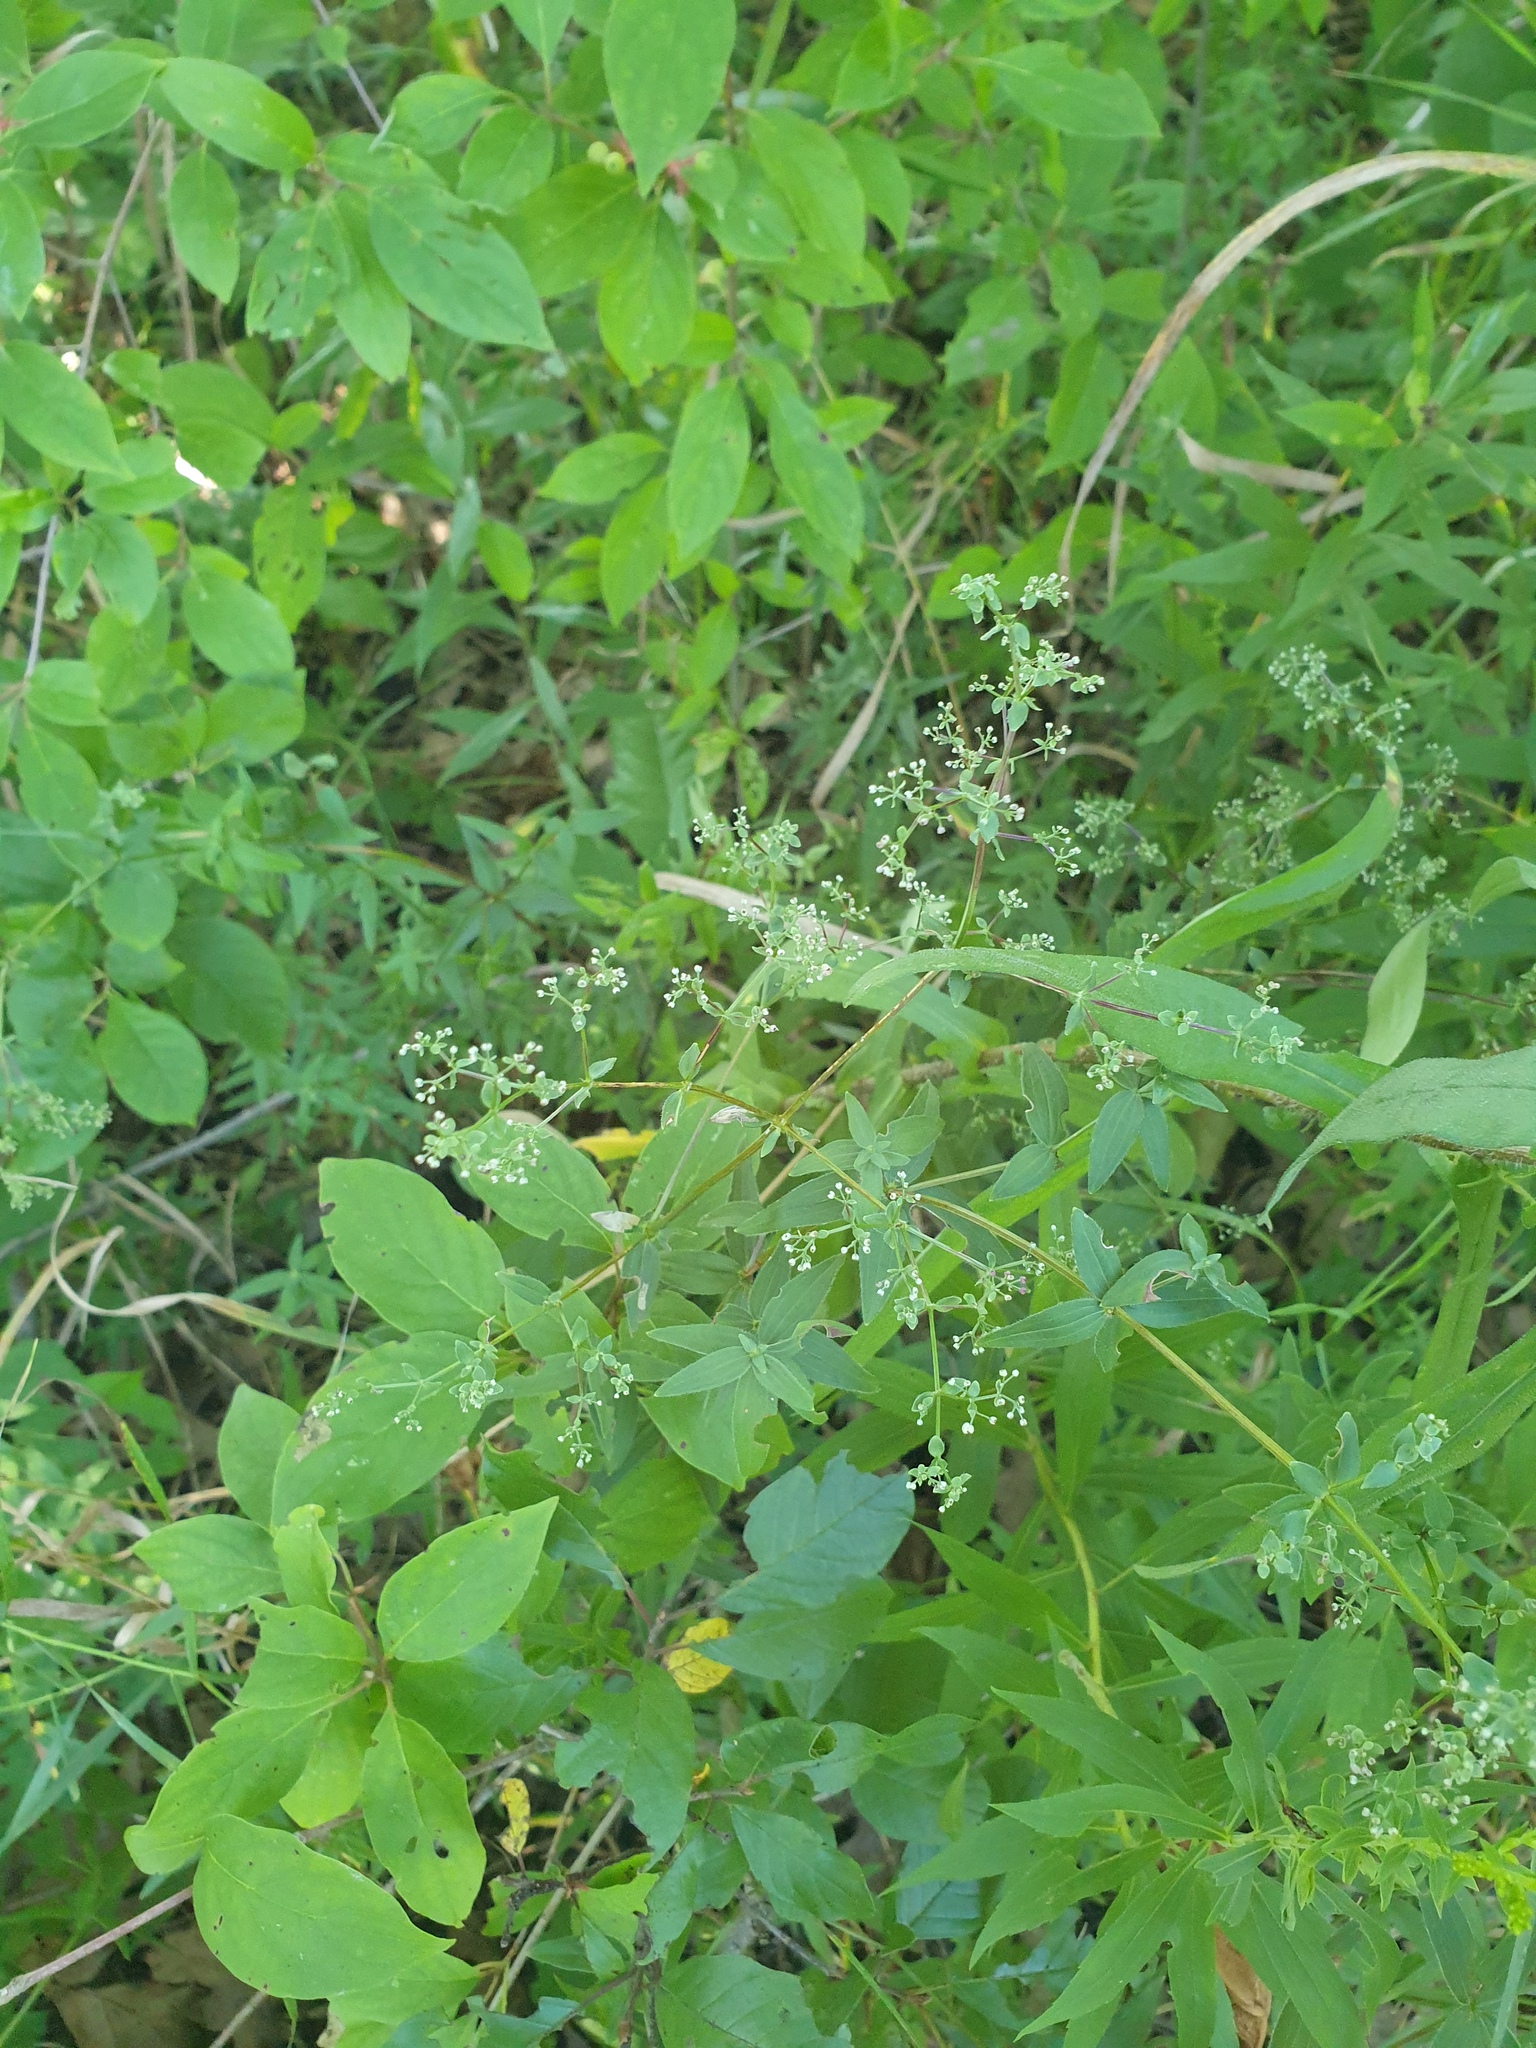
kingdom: Plantae
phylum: Tracheophyta
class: Magnoliopsida
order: Gentianales
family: Rubiaceae
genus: Galium
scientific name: Galium lanceolatum
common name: Lance-leaved wild licorice
